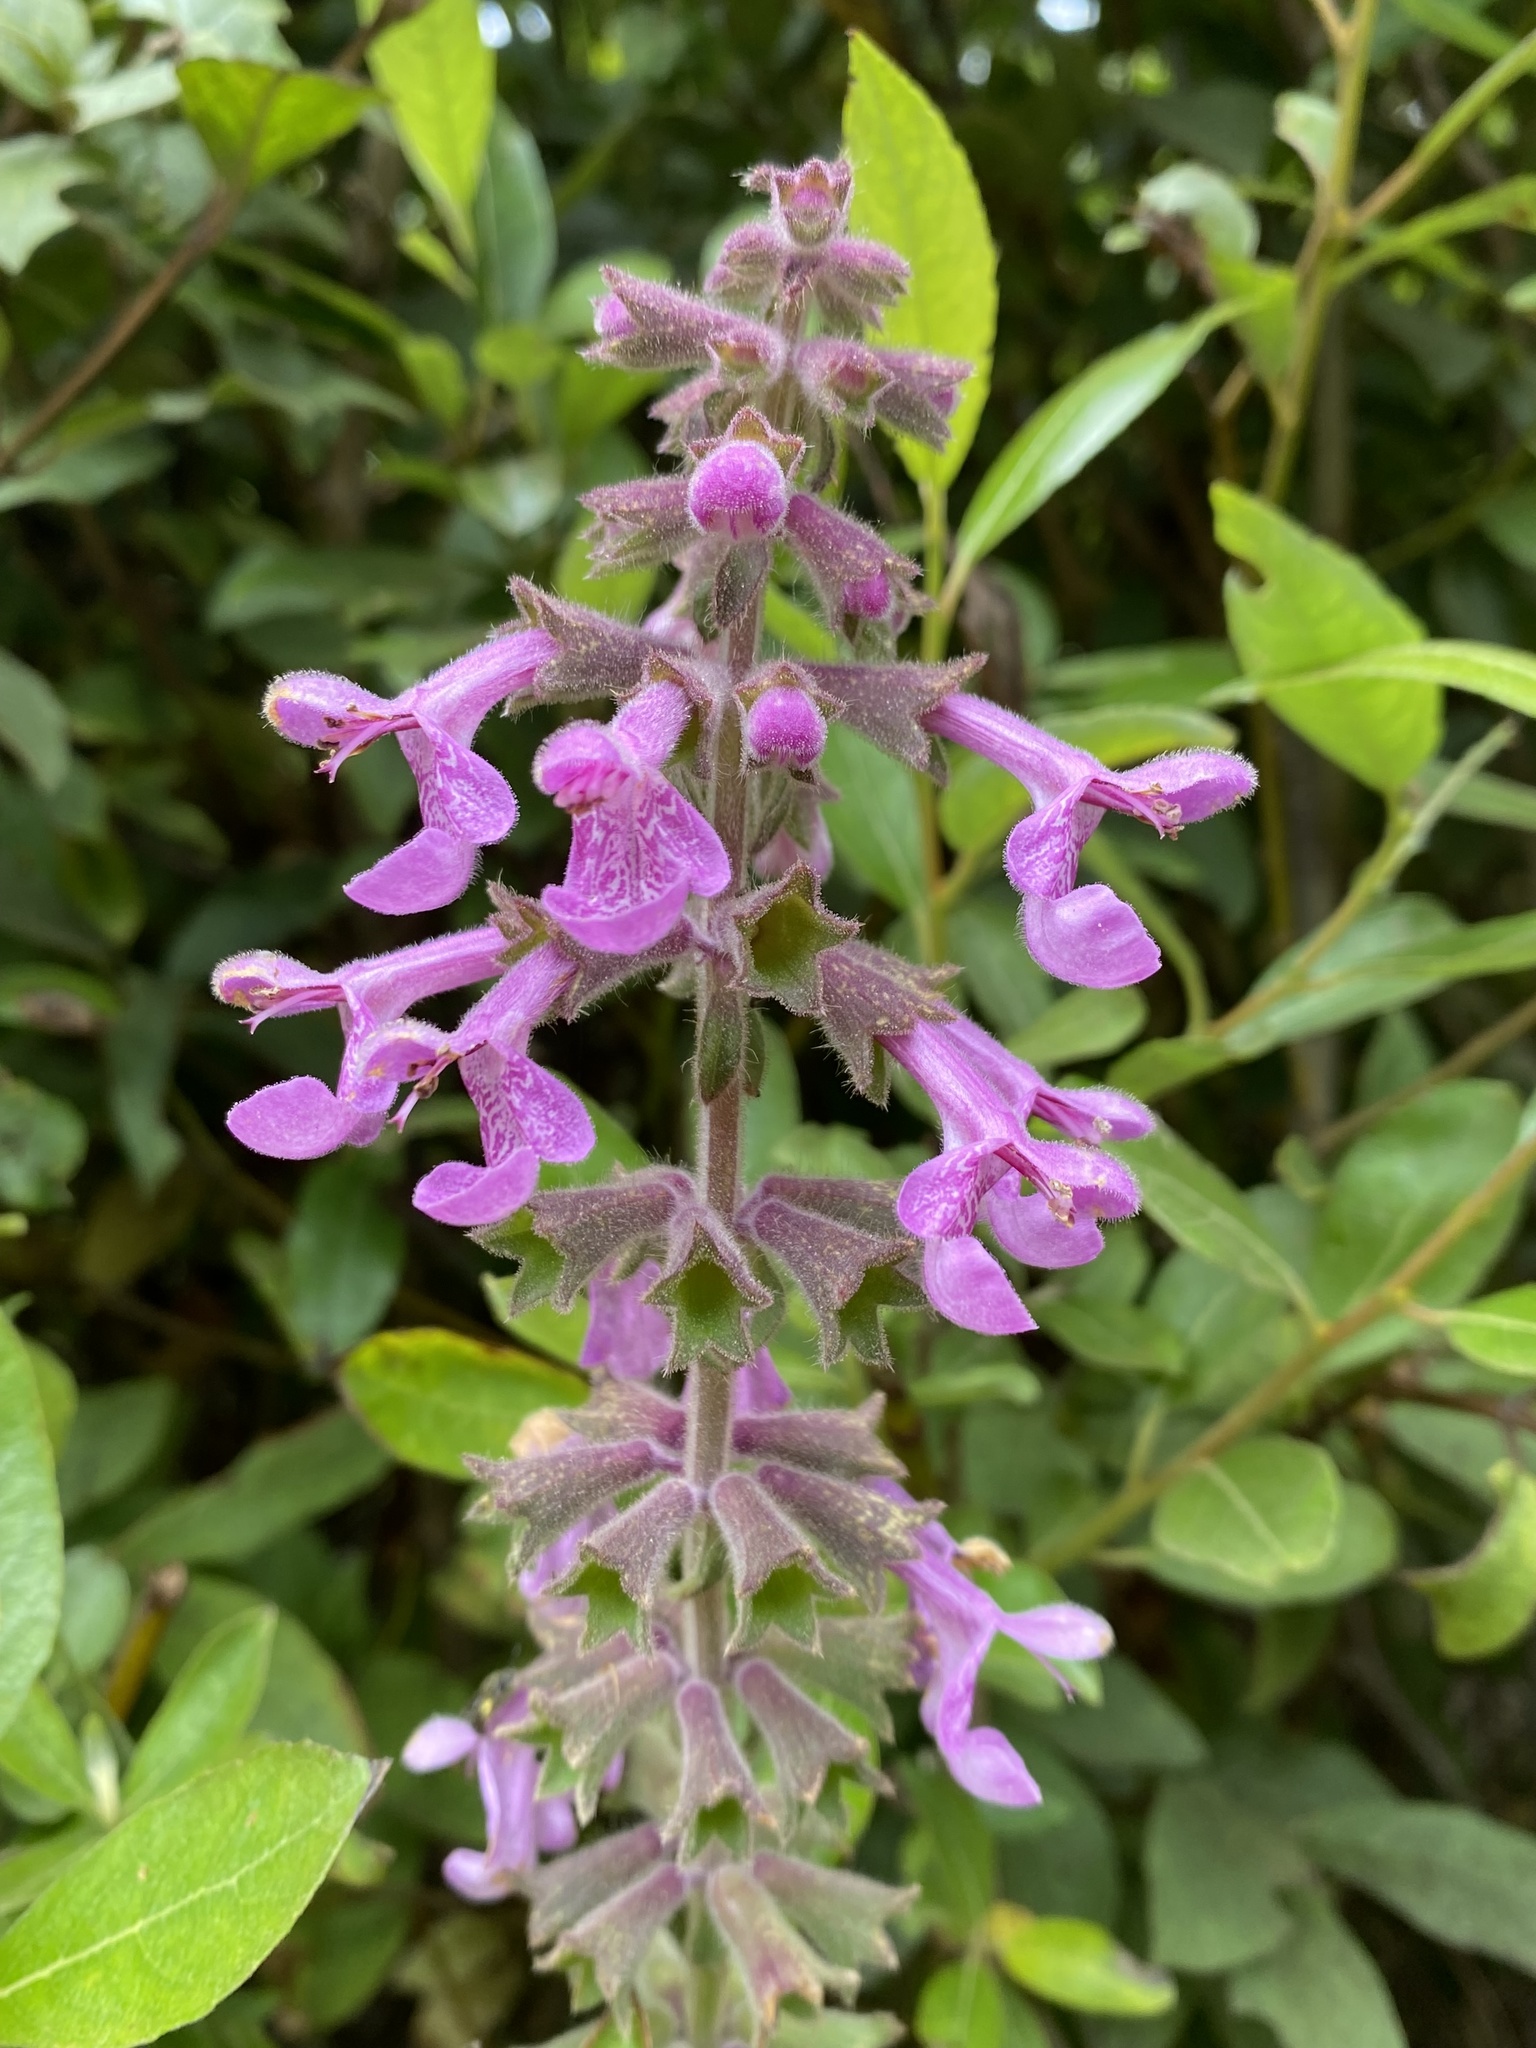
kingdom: Plantae
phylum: Tracheophyta
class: Magnoliopsida
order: Lamiales
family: Lamiaceae
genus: Stachys
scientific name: Stachys chamissonis
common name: Coastal hedge-nettle
